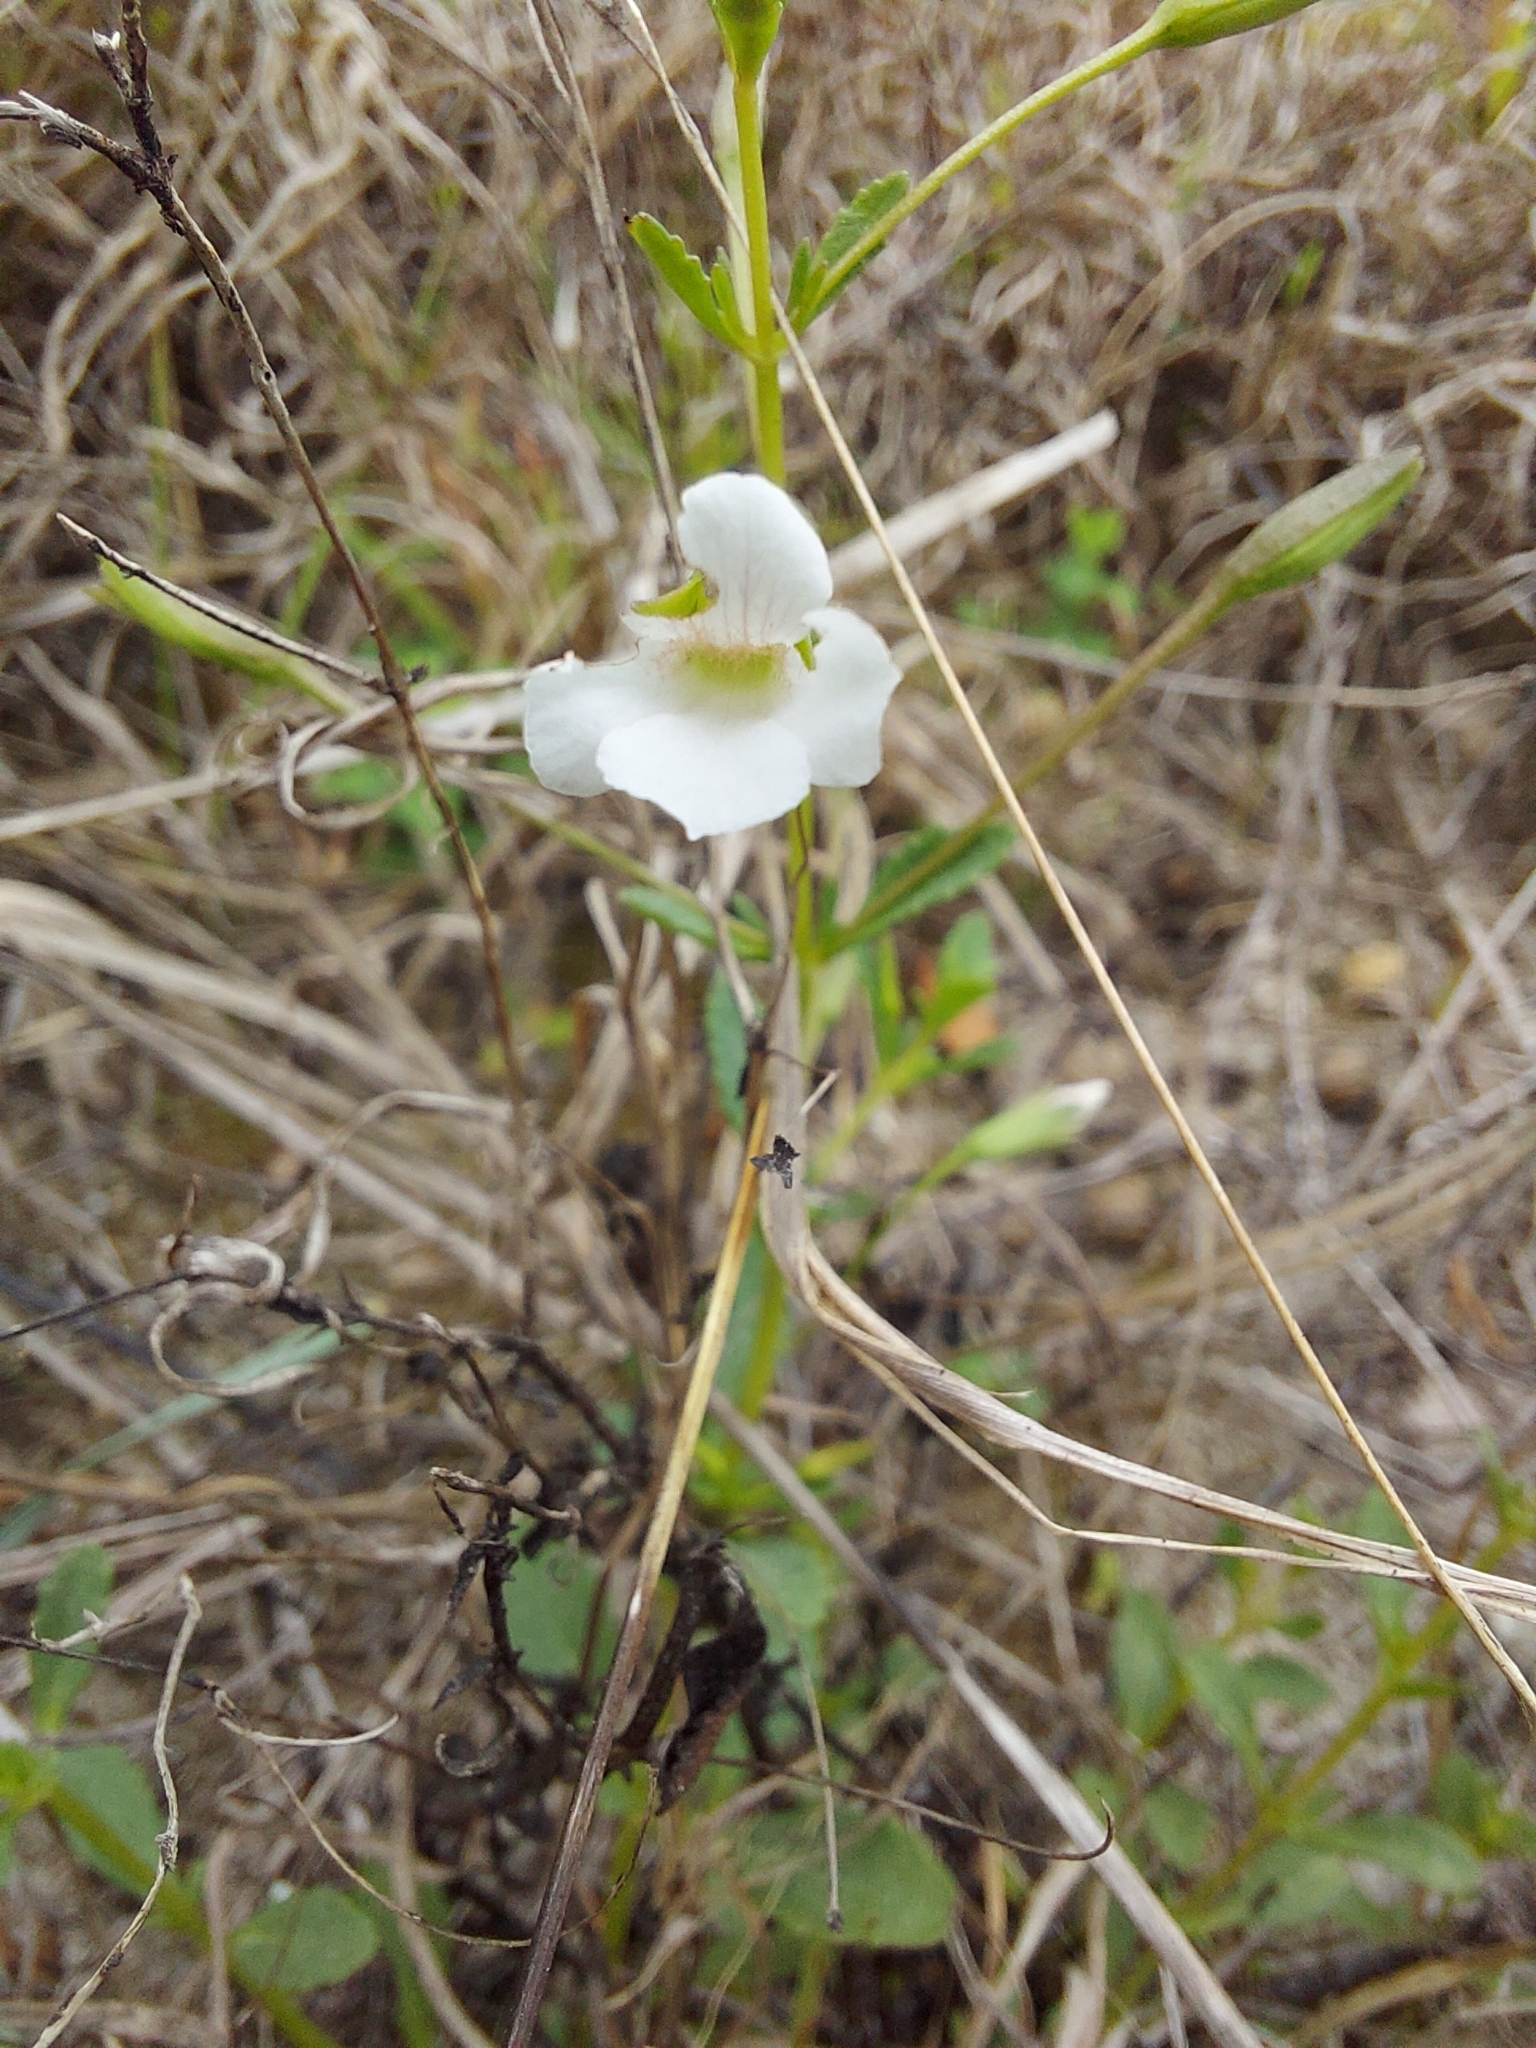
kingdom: Plantae
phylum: Tracheophyta
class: Magnoliopsida
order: Lamiales
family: Plantaginaceae
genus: Mecardonia
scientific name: Mecardonia acuminata
